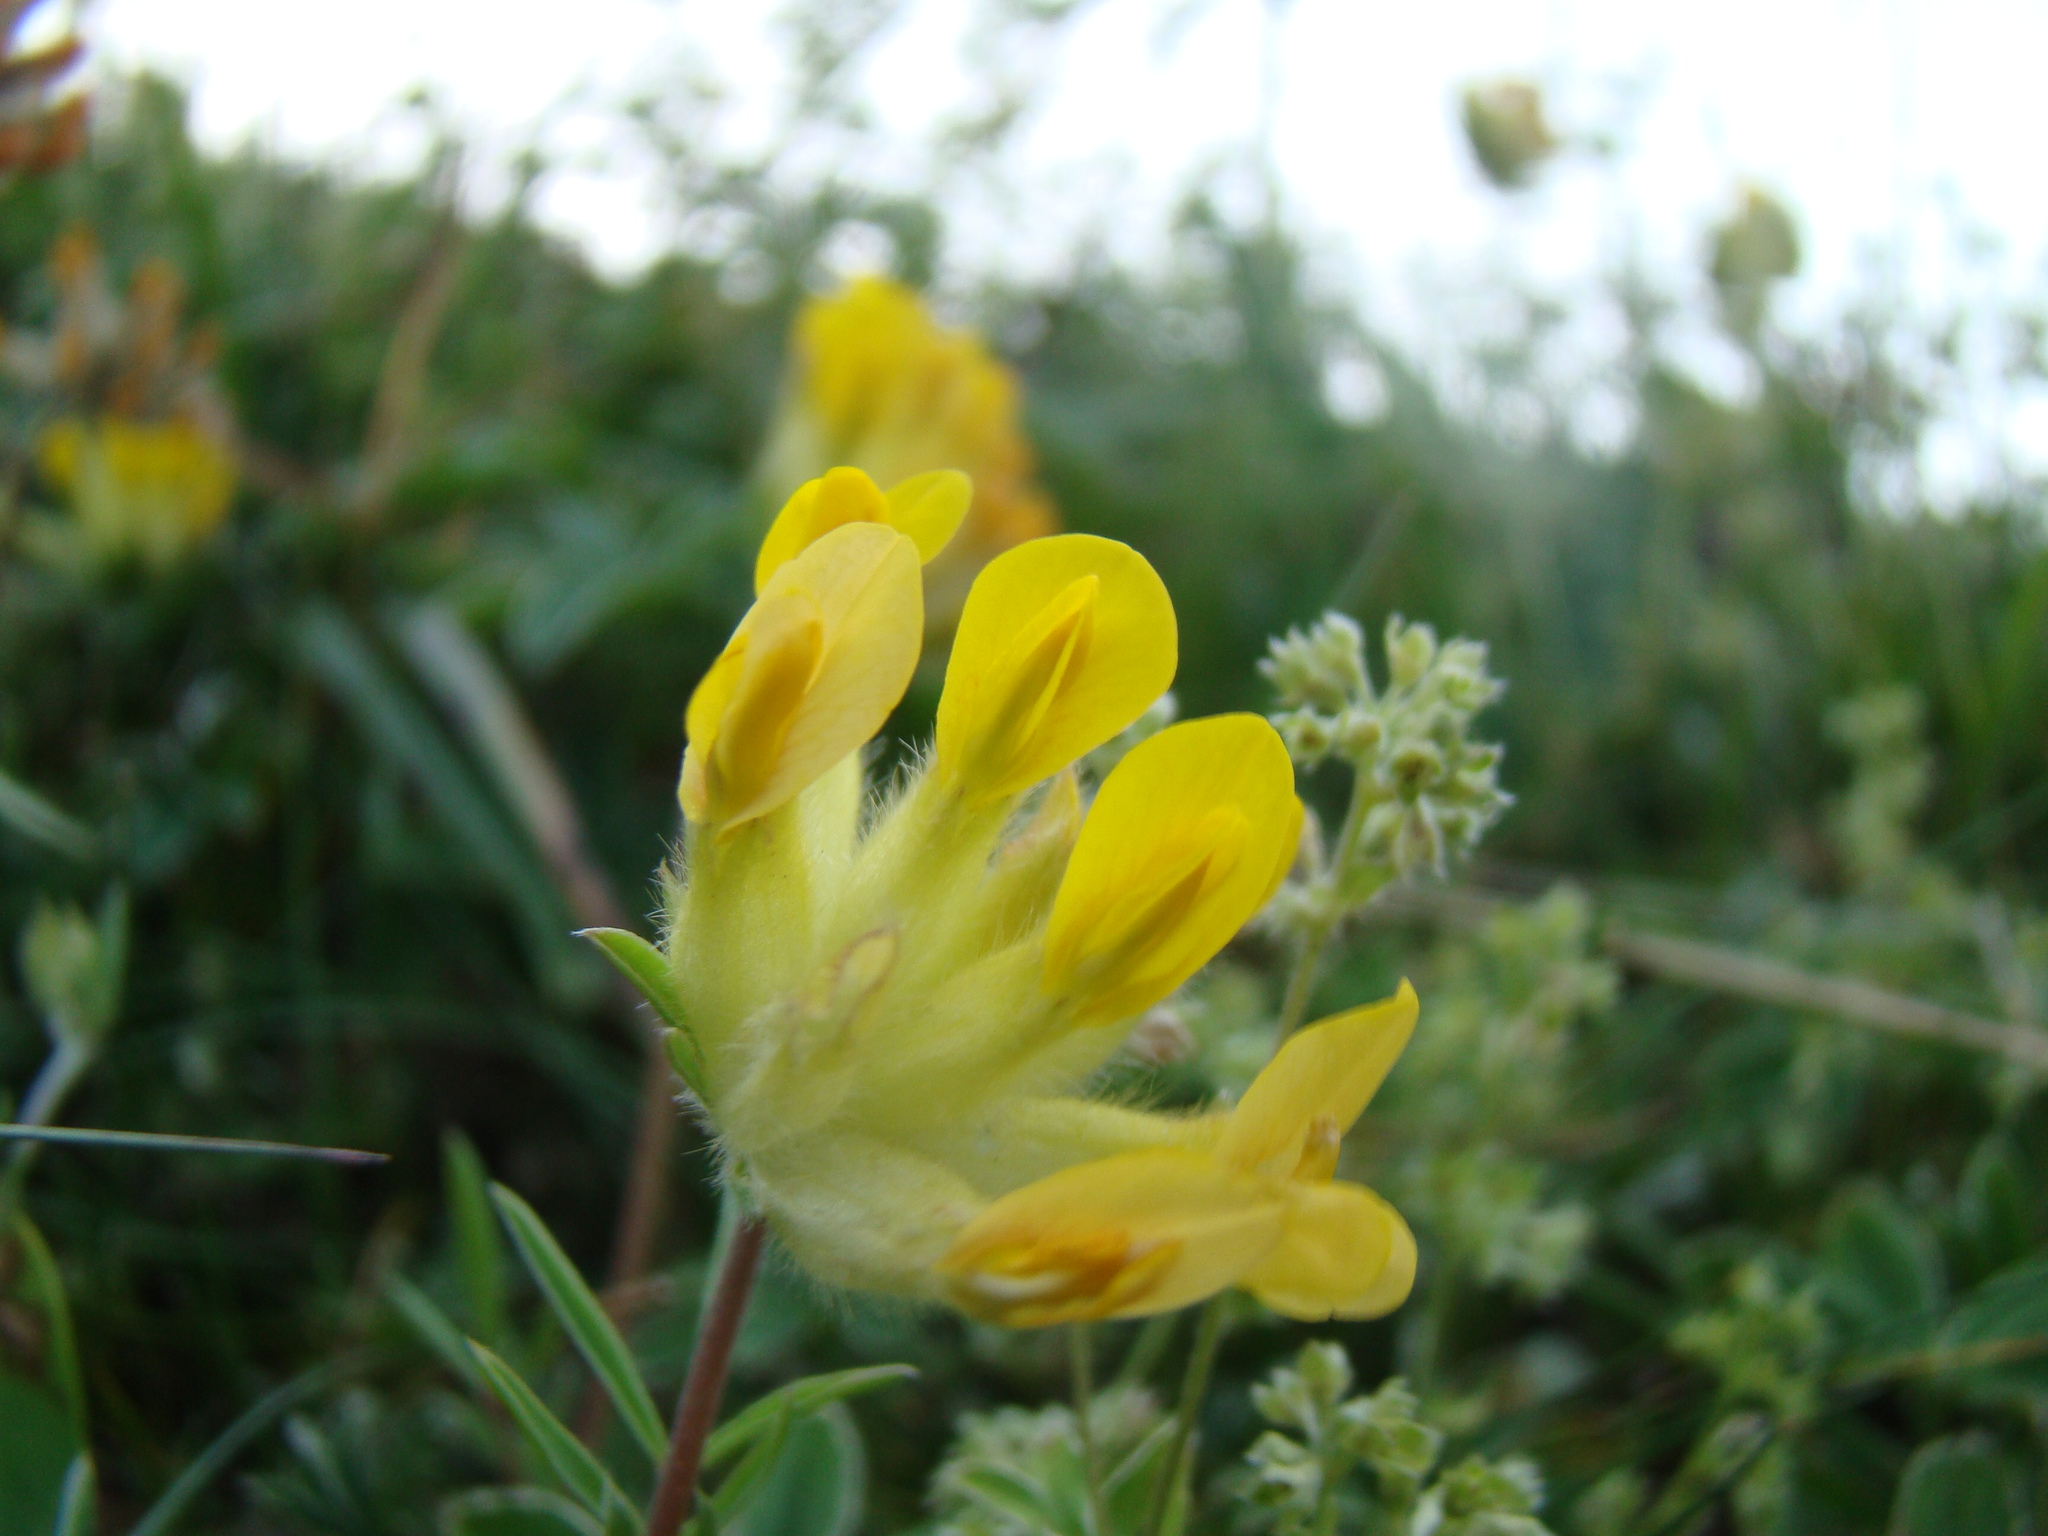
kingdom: Plantae
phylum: Tracheophyta
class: Magnoliopsida
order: Fabales
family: Fabaceae
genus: Anthyllis
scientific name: Anthyllis vulneraria
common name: Kidney vetch
